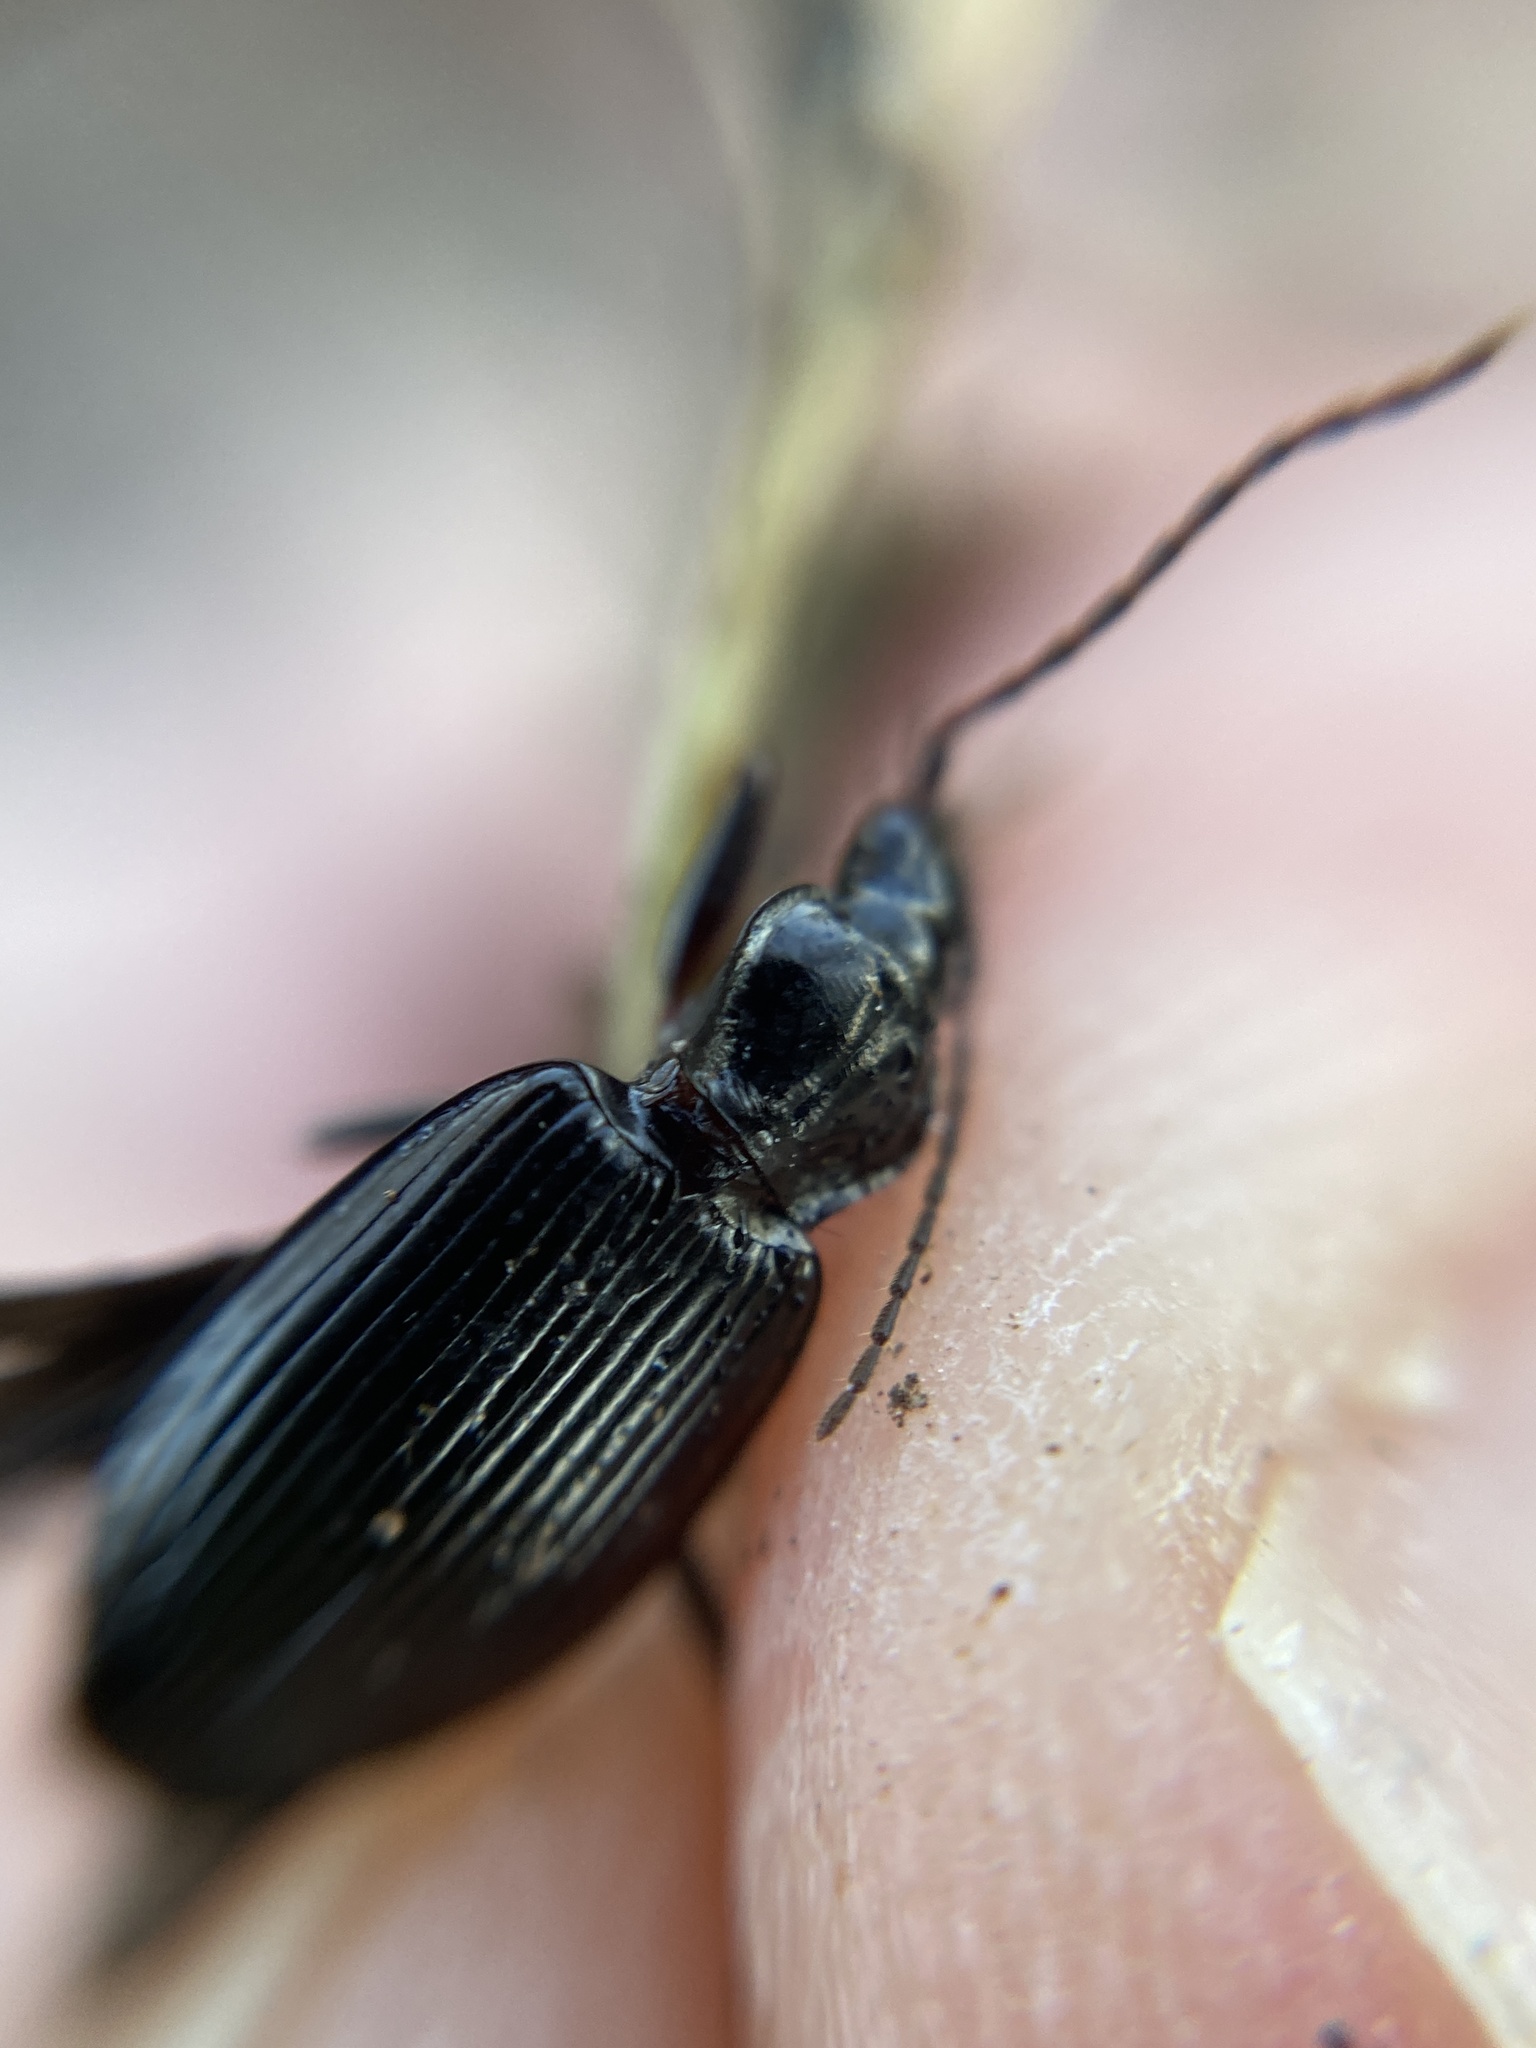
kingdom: Animalia
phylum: Arthropoda
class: Insecta
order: Coleoptera
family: Carabidae
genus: Platynus
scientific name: Platynus assimilis
